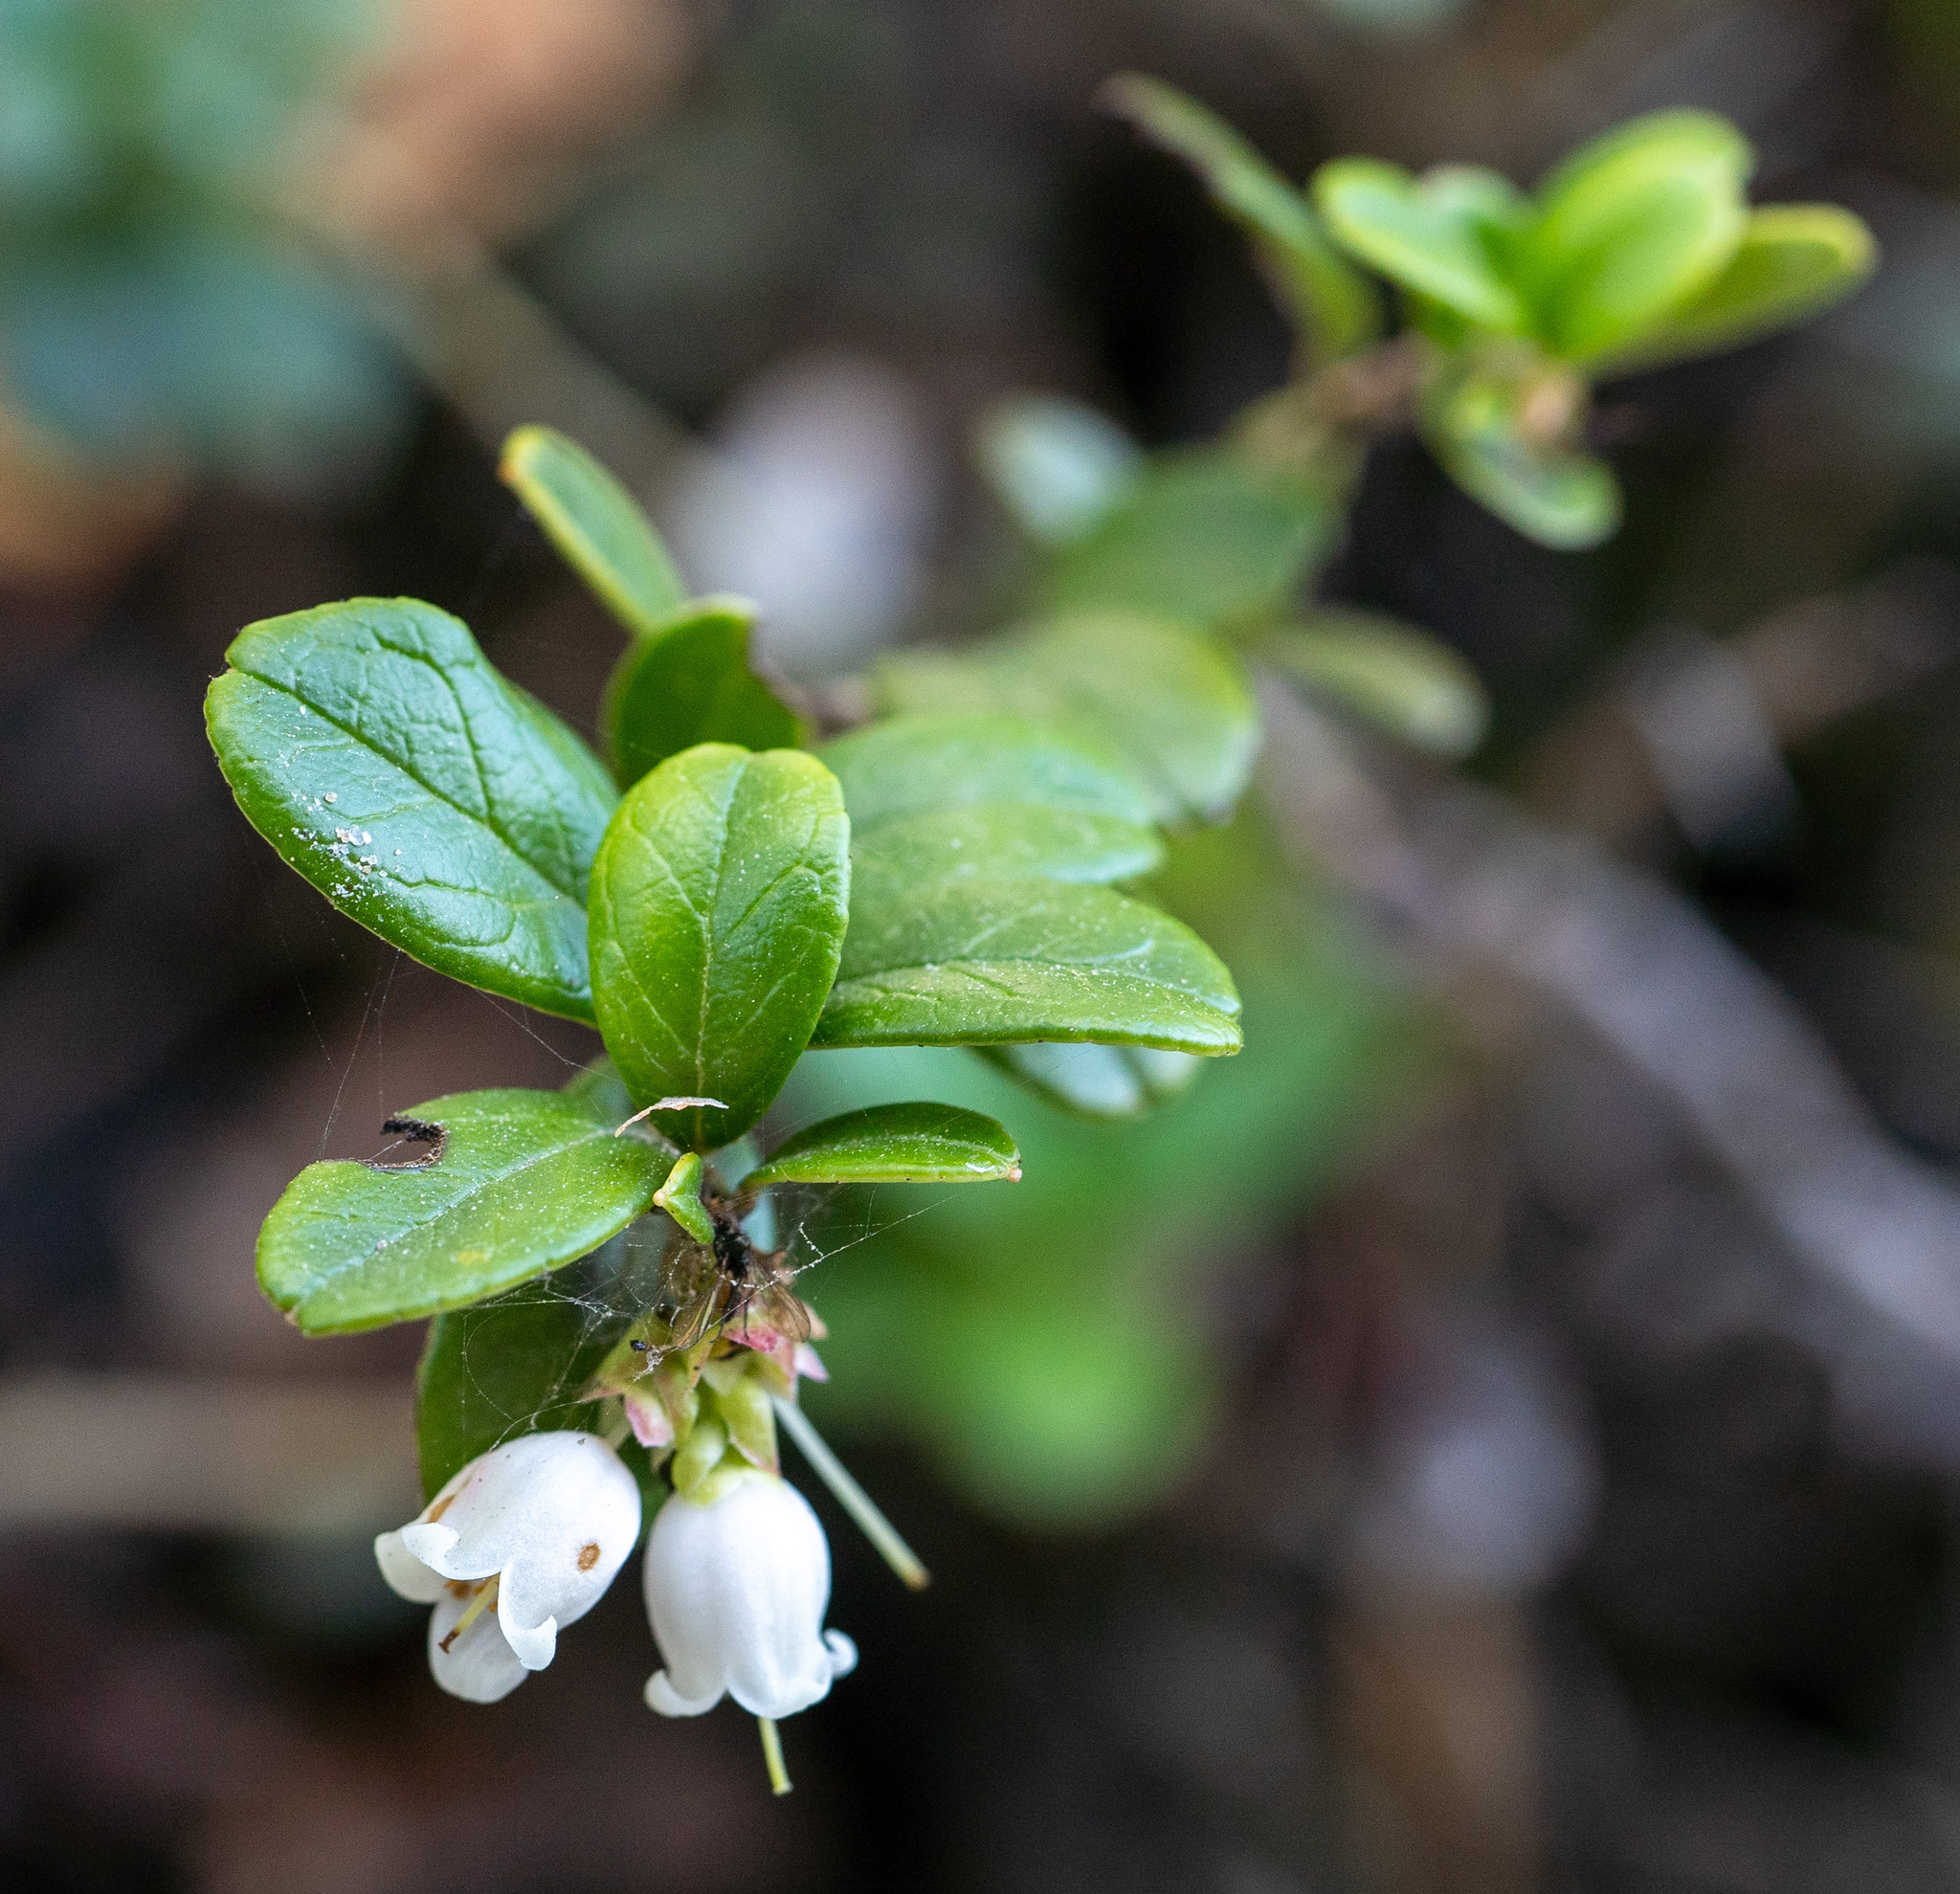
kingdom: Plantae
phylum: Tracheophyta
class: Magnoliopsida
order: Ericales
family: Ericaceae
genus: Vaccinium
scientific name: Vaccinium vitis-idaea
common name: Cowberry
